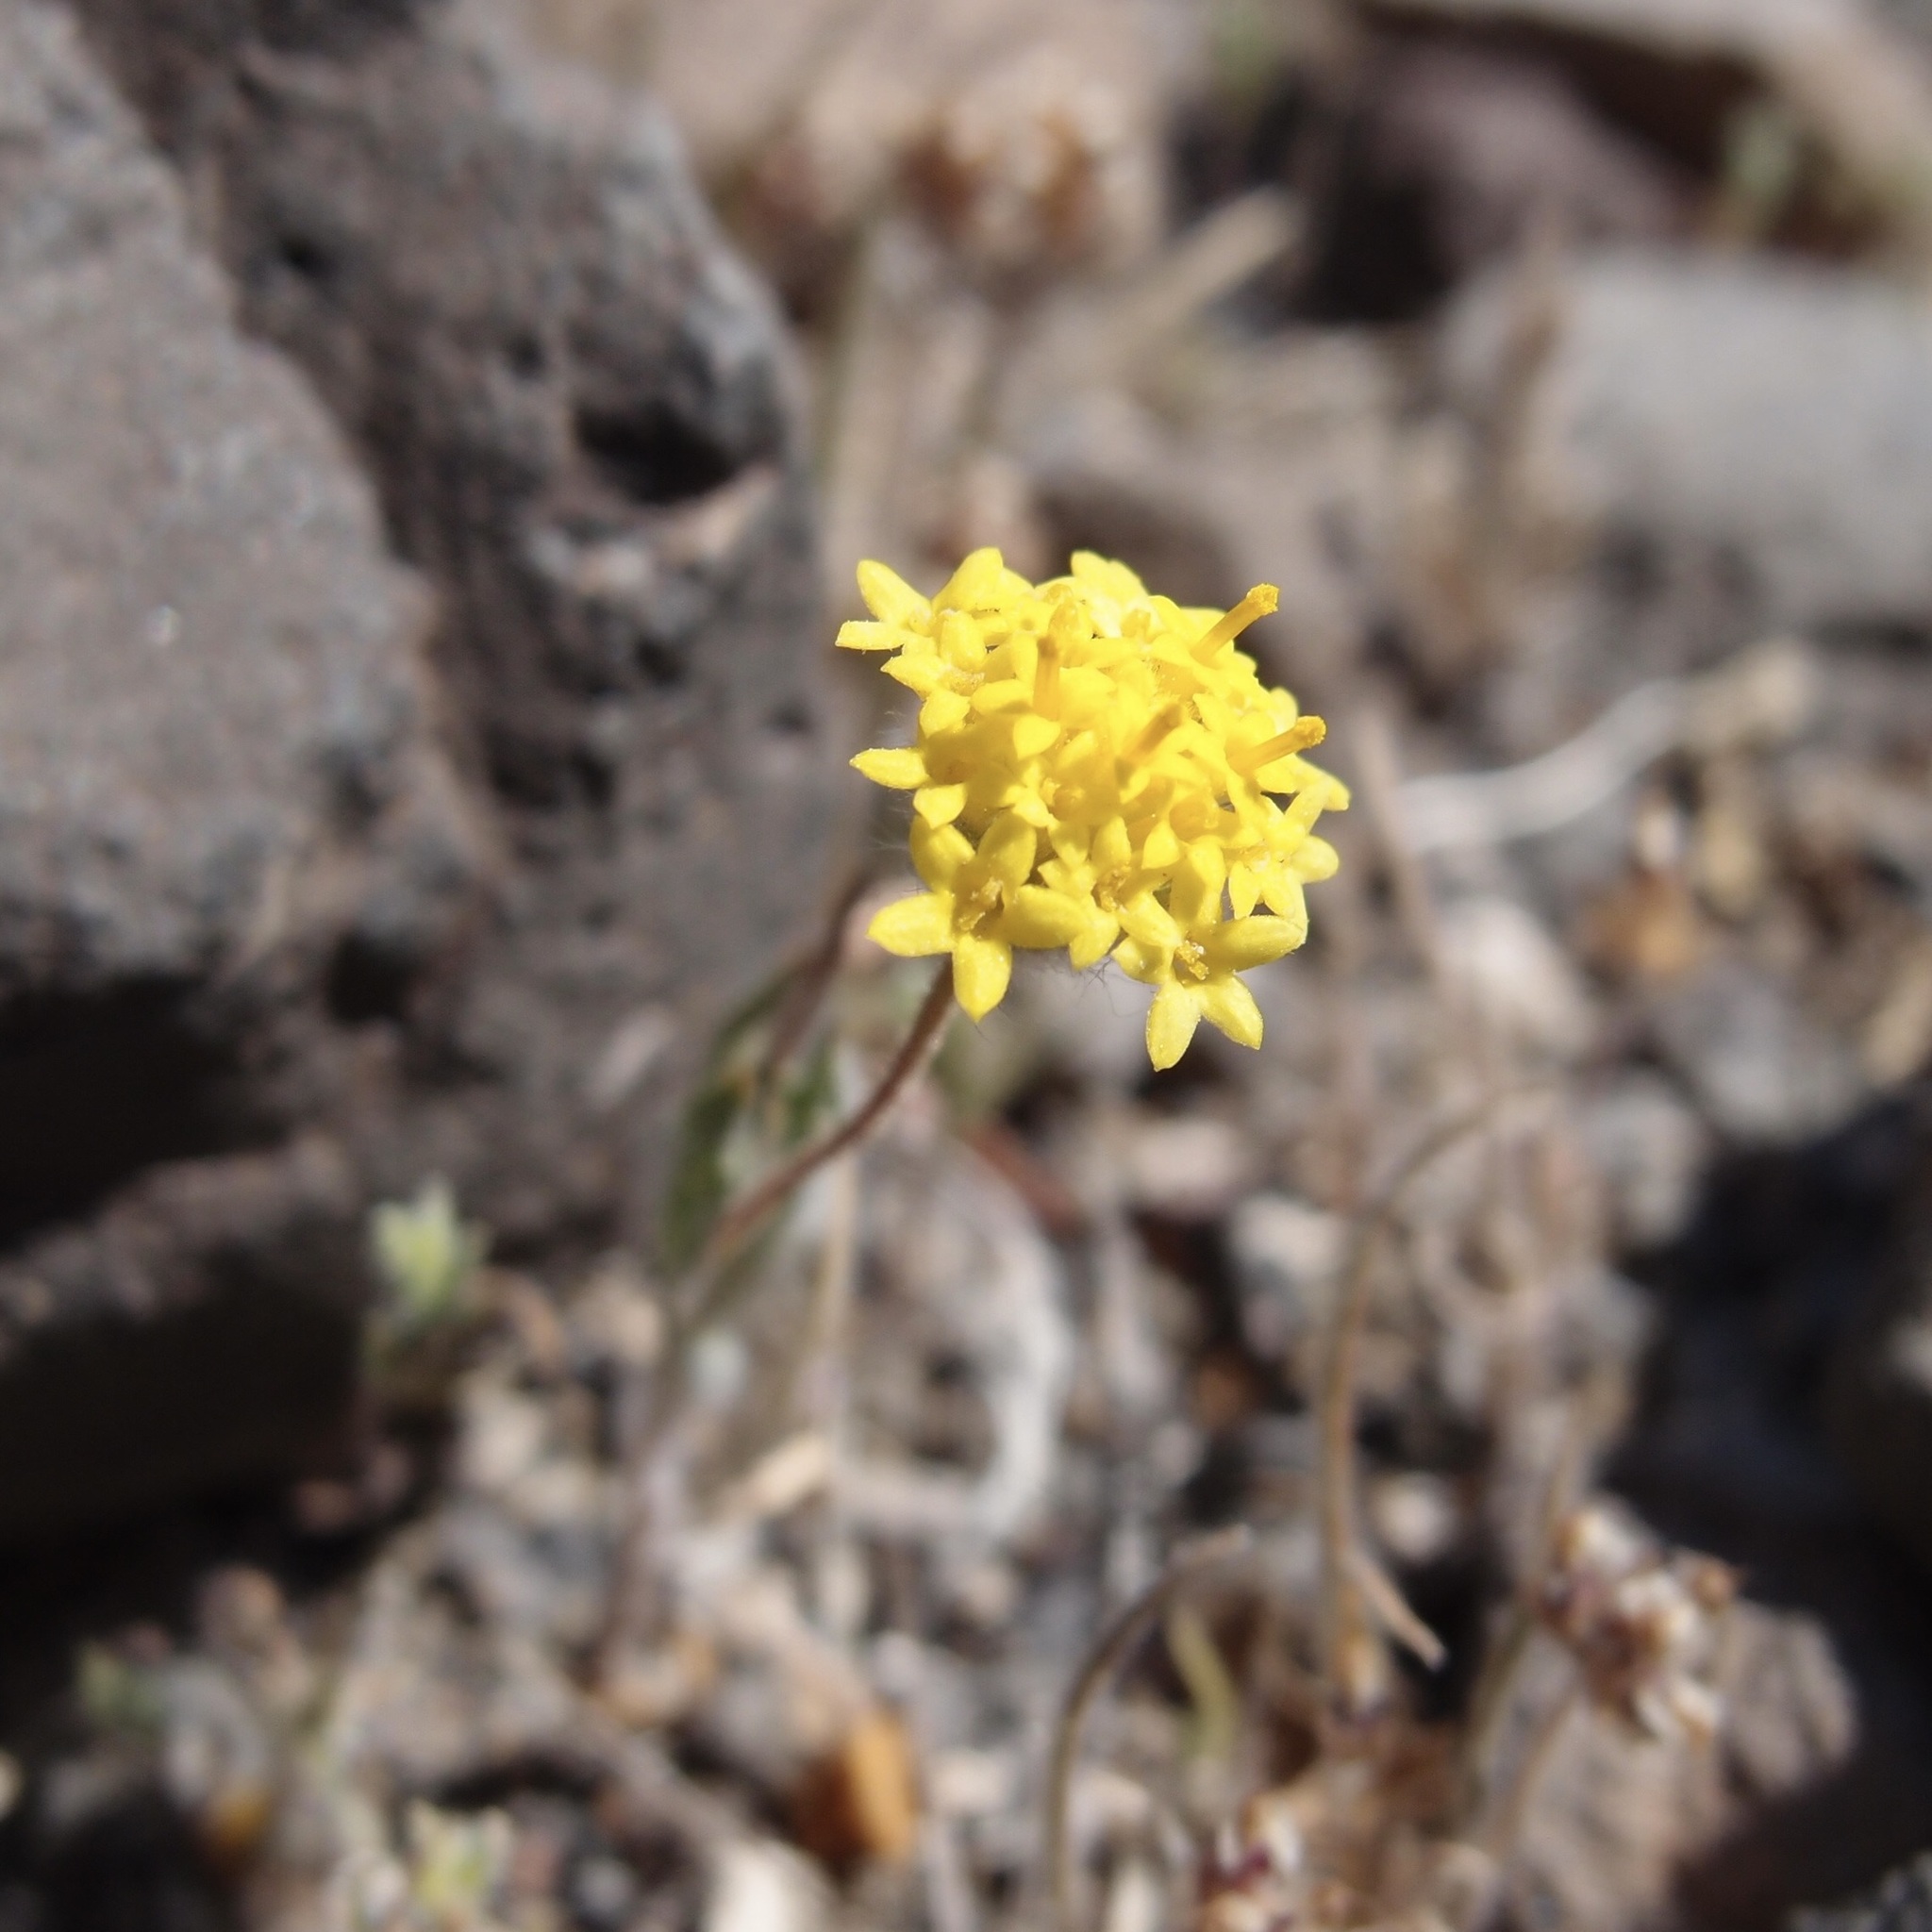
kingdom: Plantae
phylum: Tracheophyta
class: Magnoliopsida
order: Asterales
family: Asteraceae
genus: Trichoptilium
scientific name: Trichoptilium incisum
